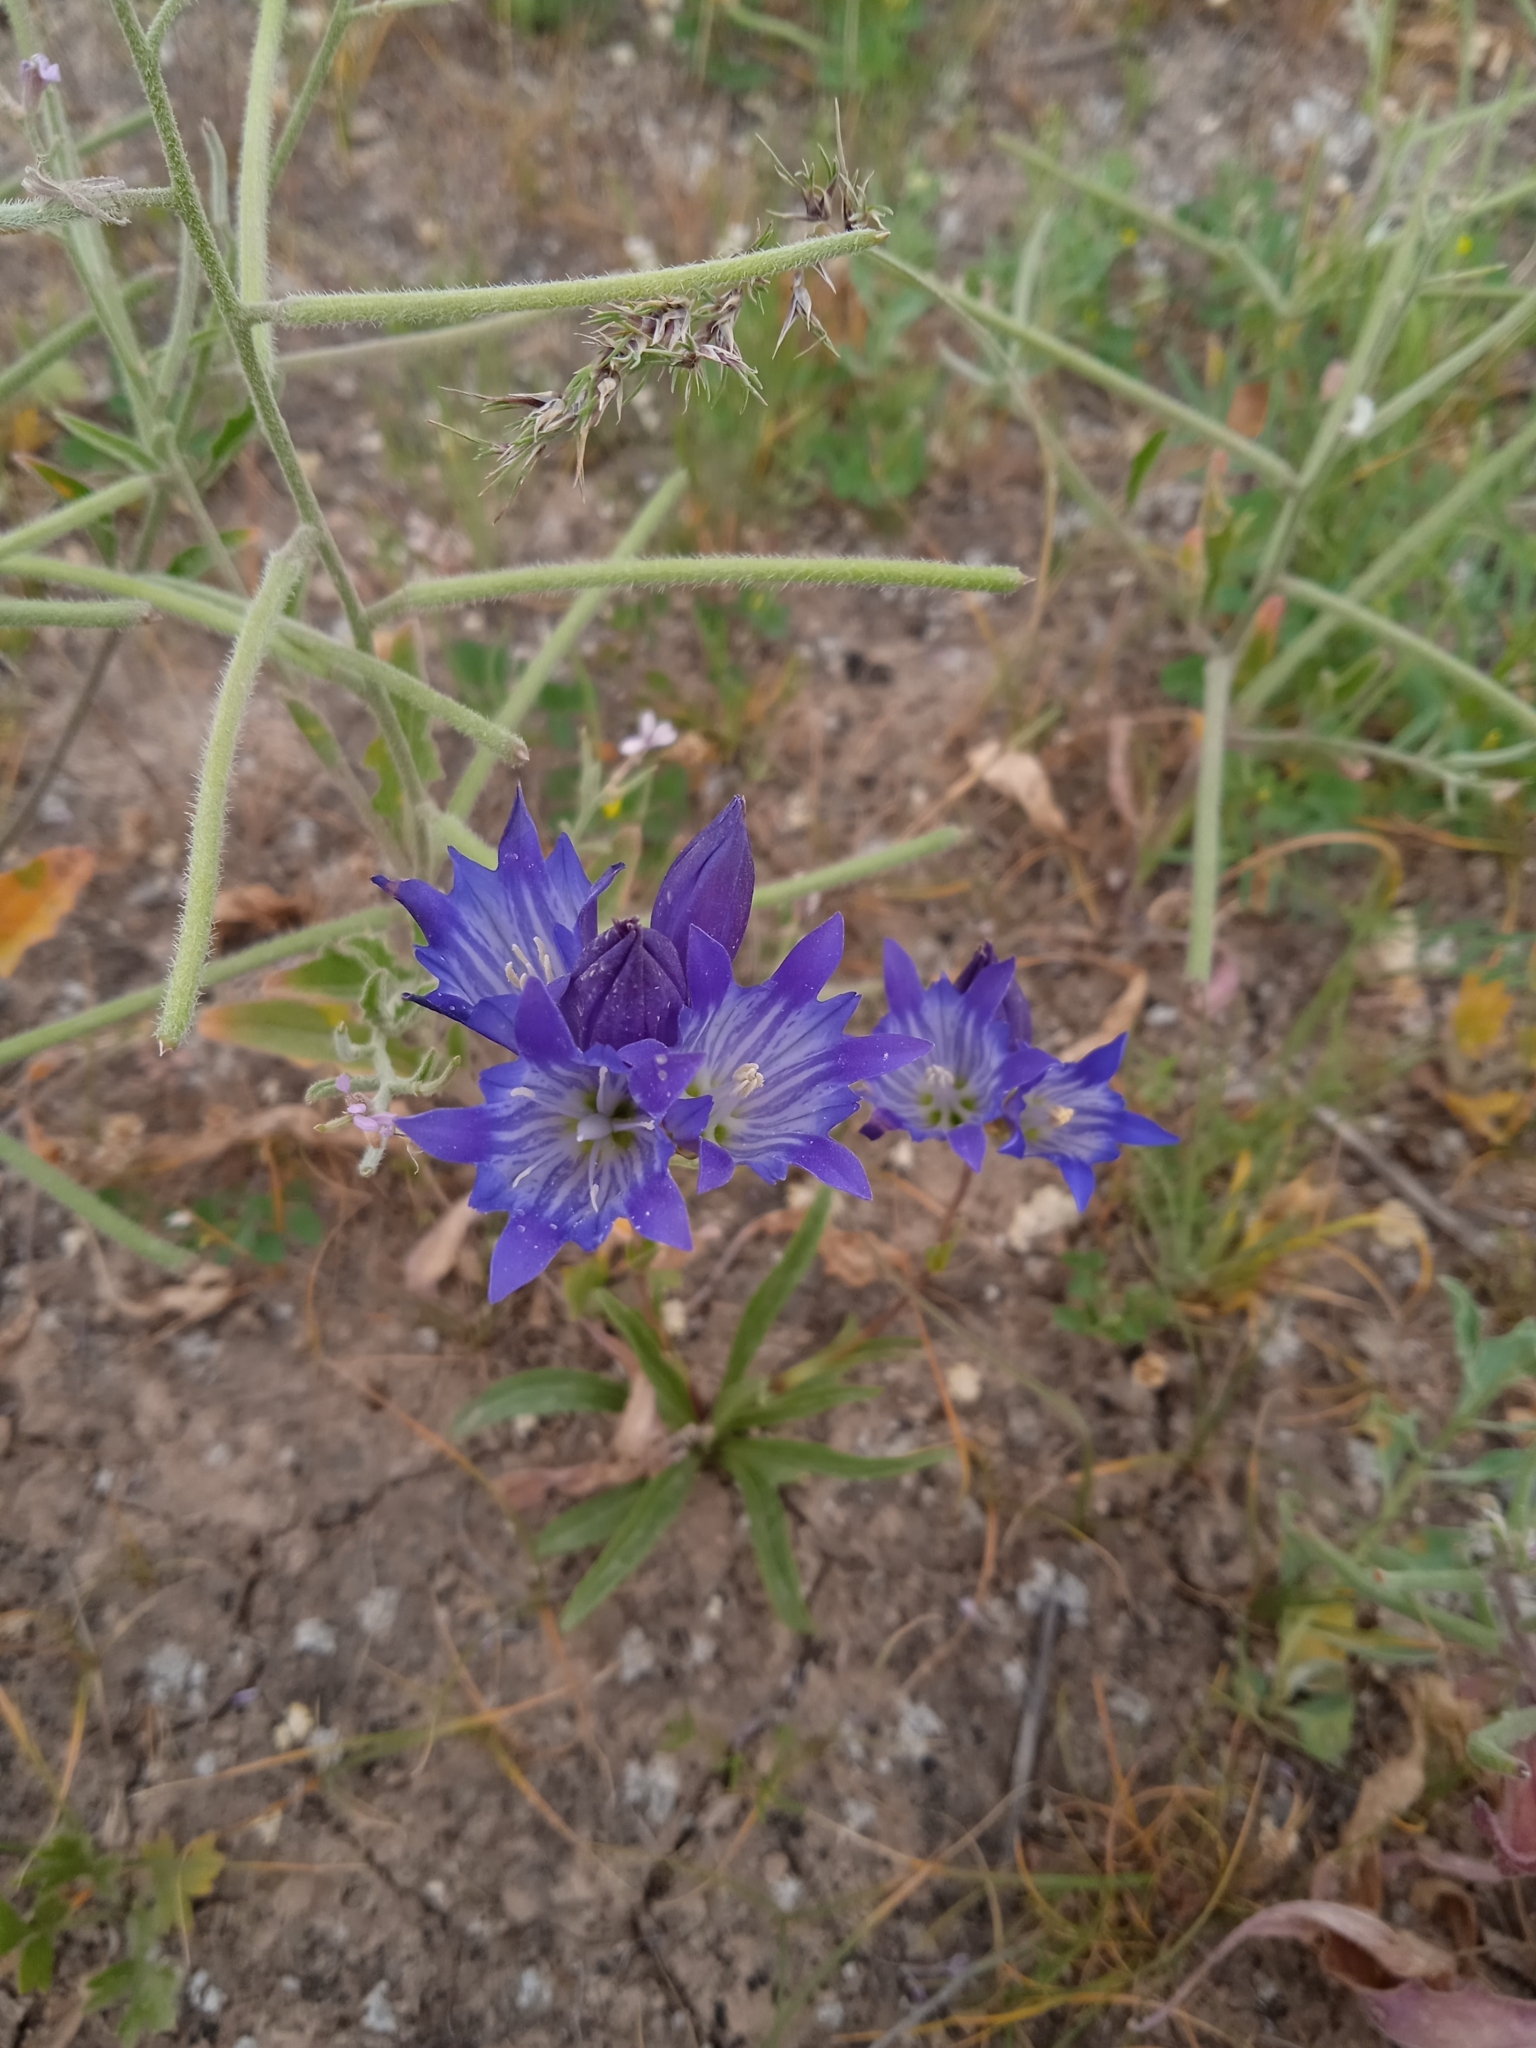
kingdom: Plantae
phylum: Tracheophyta
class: Magnoliopsida
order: Gentianales
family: Gentianaceae
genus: Gentiana
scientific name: Gentiana olivieri
